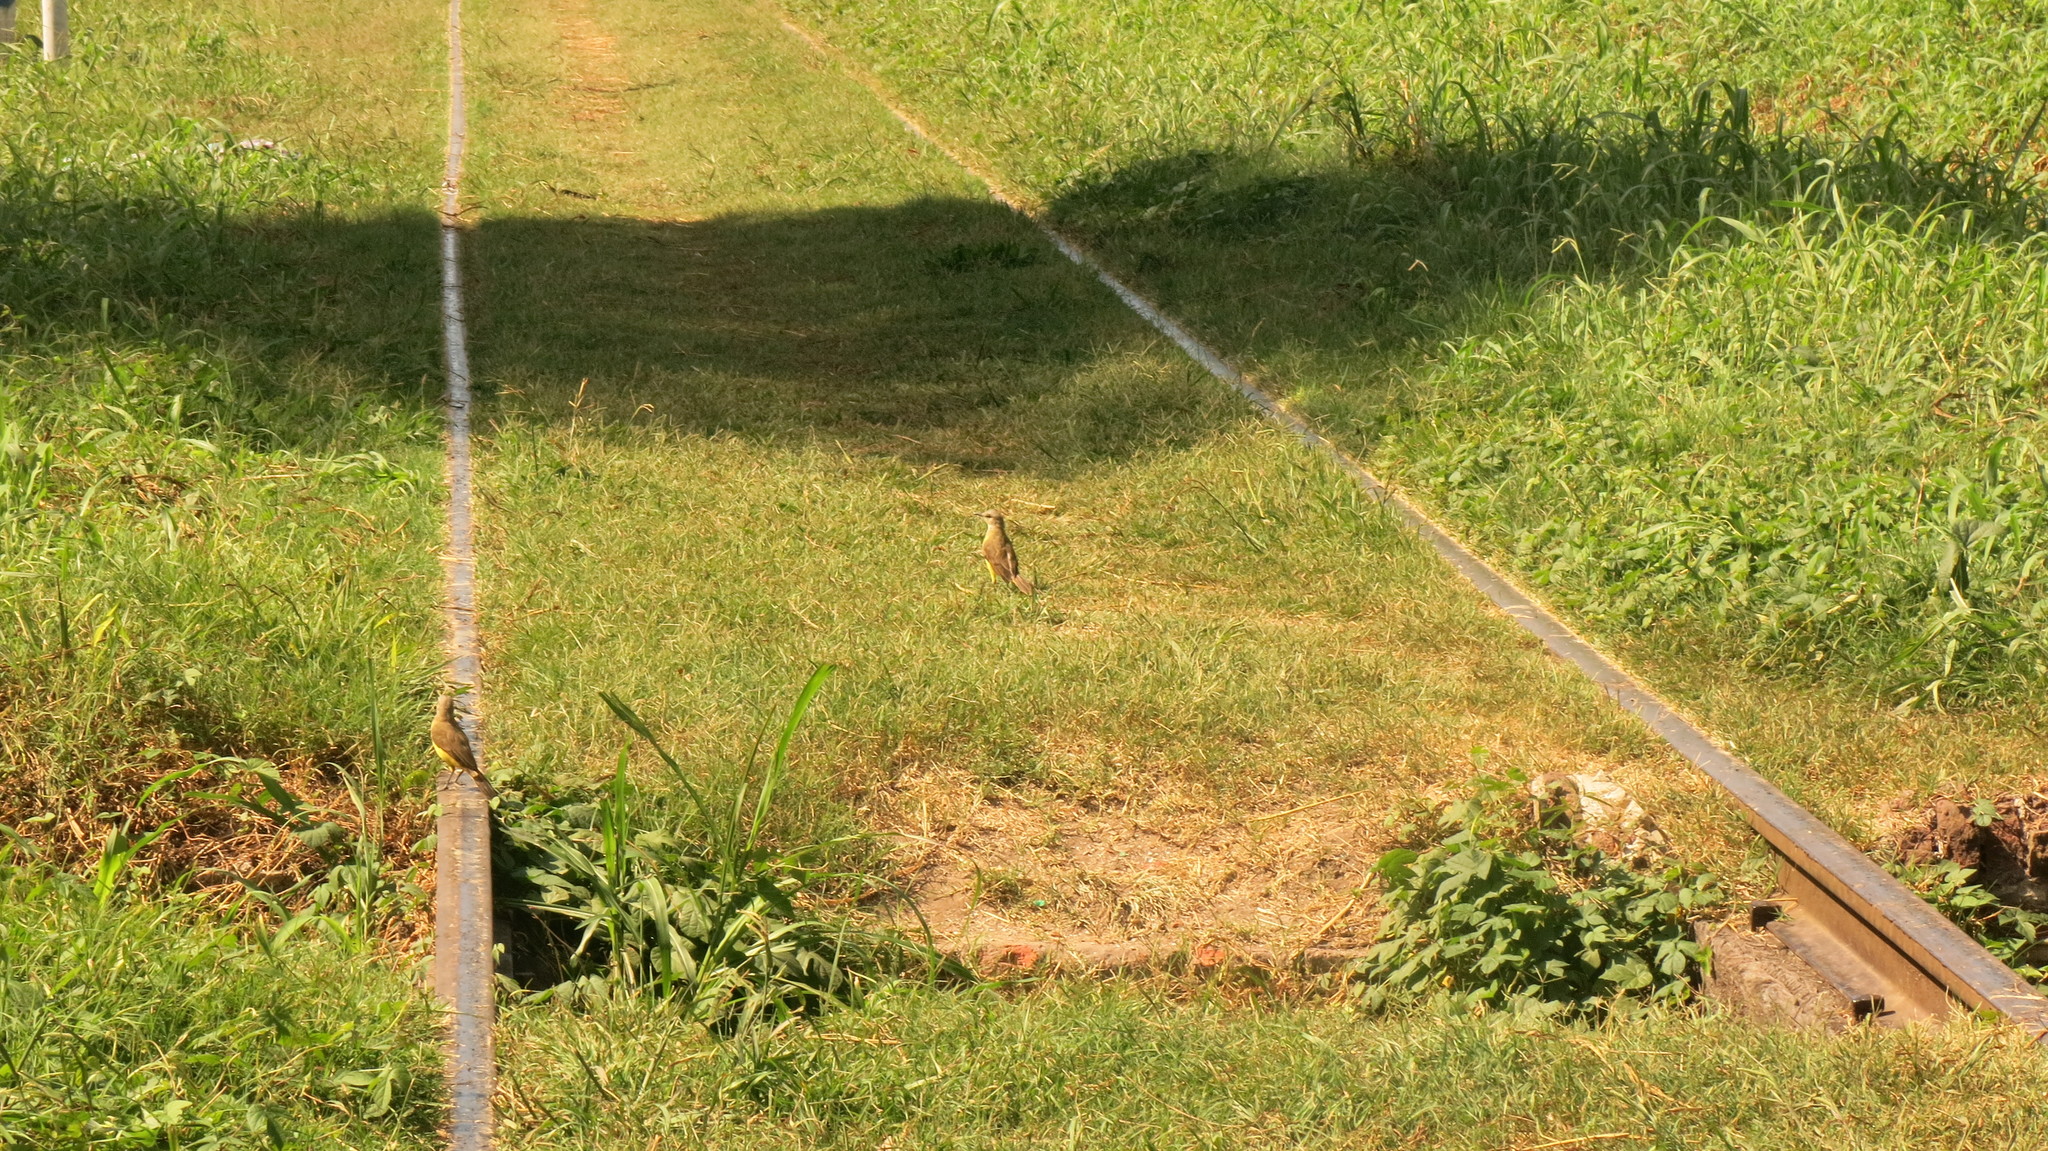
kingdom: Animalia
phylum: Chordata
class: Aves
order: Passeriformes
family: Tyrannidae
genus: Machetornis
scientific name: Machetornis rixosa
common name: Cattle tyrant
